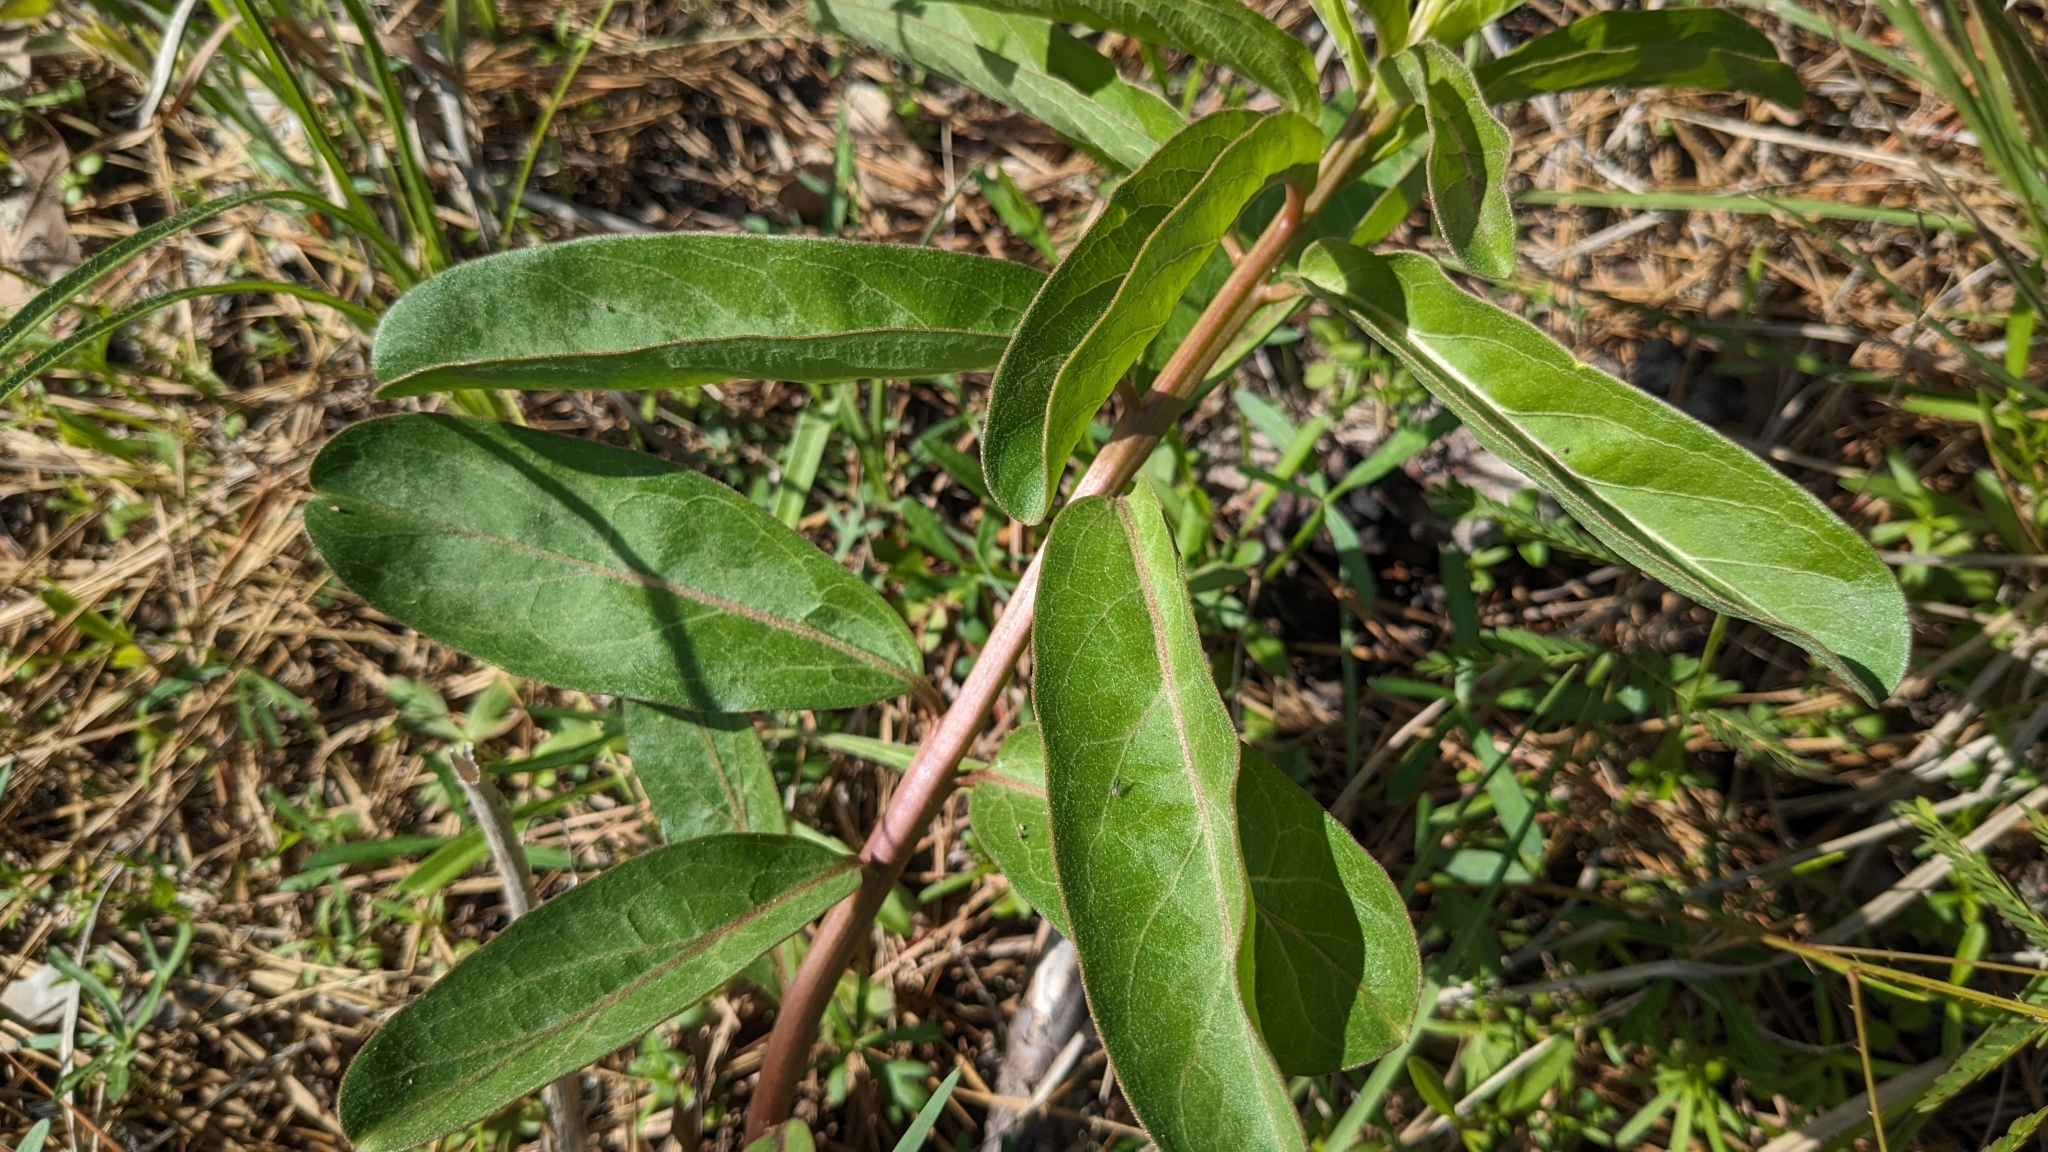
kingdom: Plantae
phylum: Tracheophyta
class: Magnoliopsida
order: Gentianales
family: Apocynaceae
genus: Asclepias
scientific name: Asclepias viridis
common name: Antelope-horns
